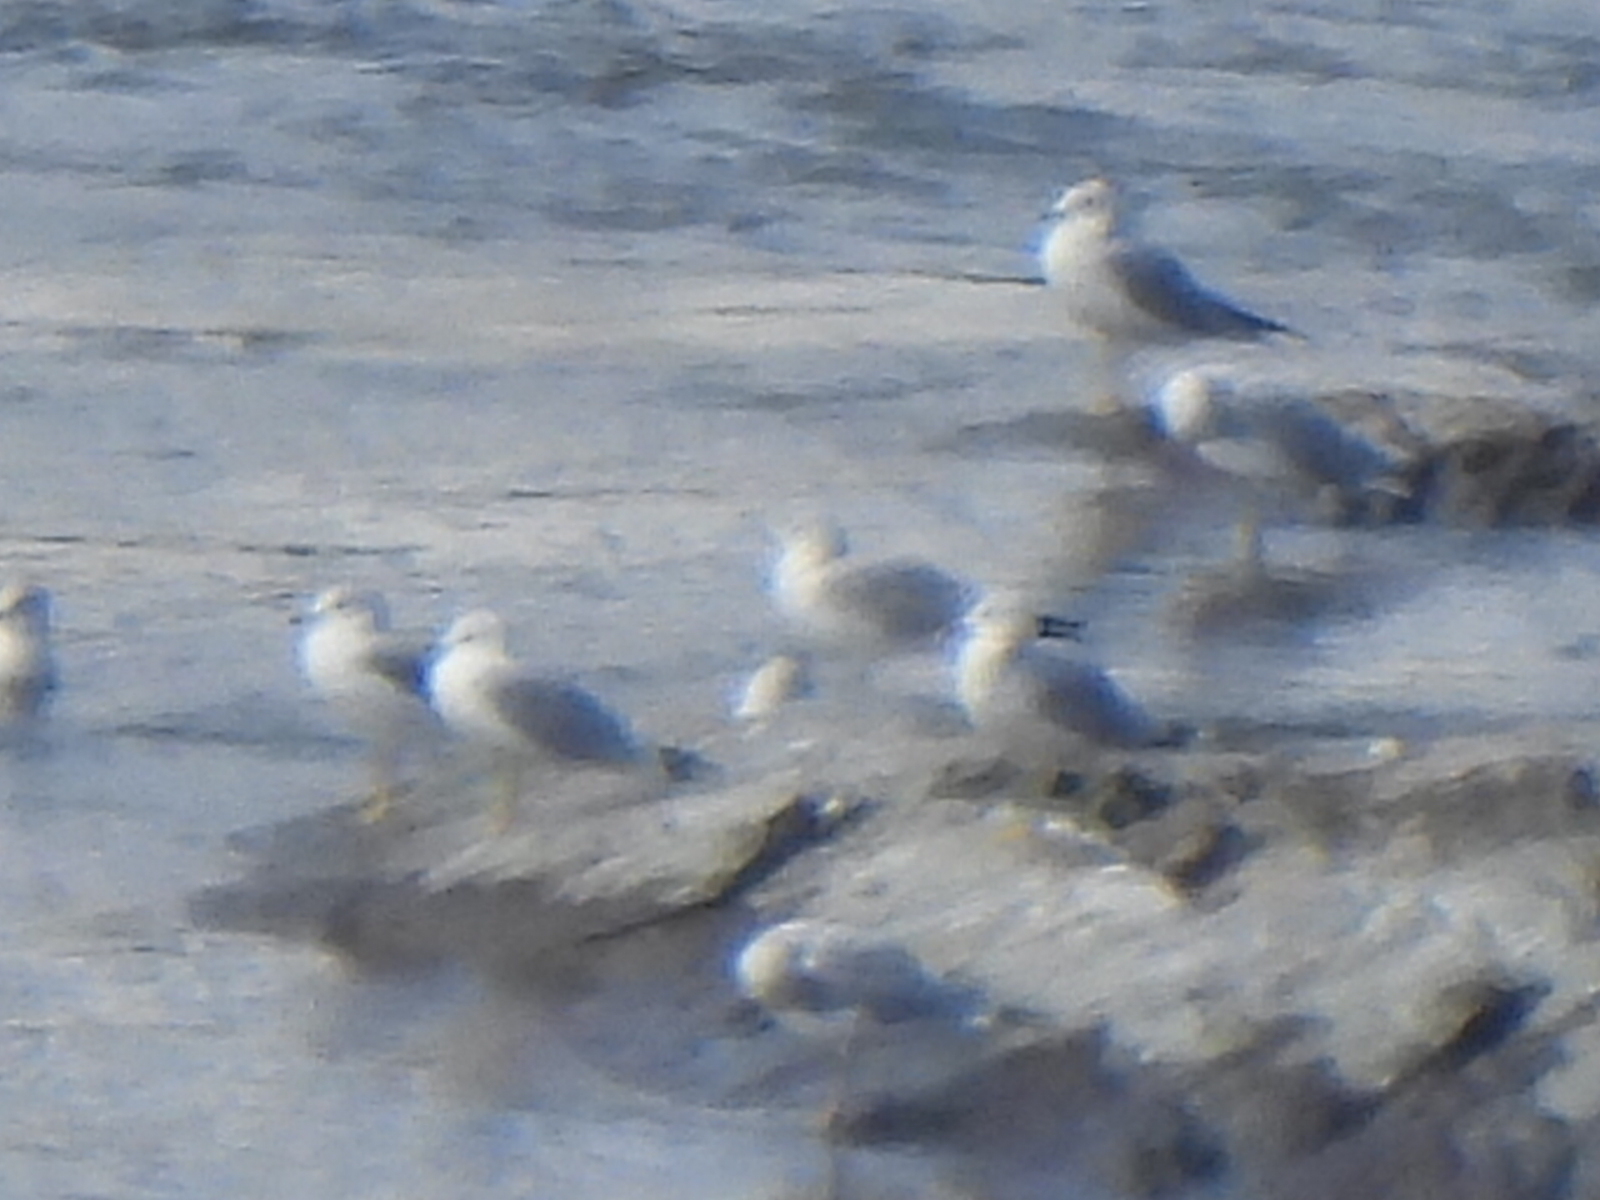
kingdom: Animalia
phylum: Chordata
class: Aves
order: Charadriiformes
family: Laridae
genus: Larus
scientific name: Larus delawarensis
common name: Ring-billed gull
